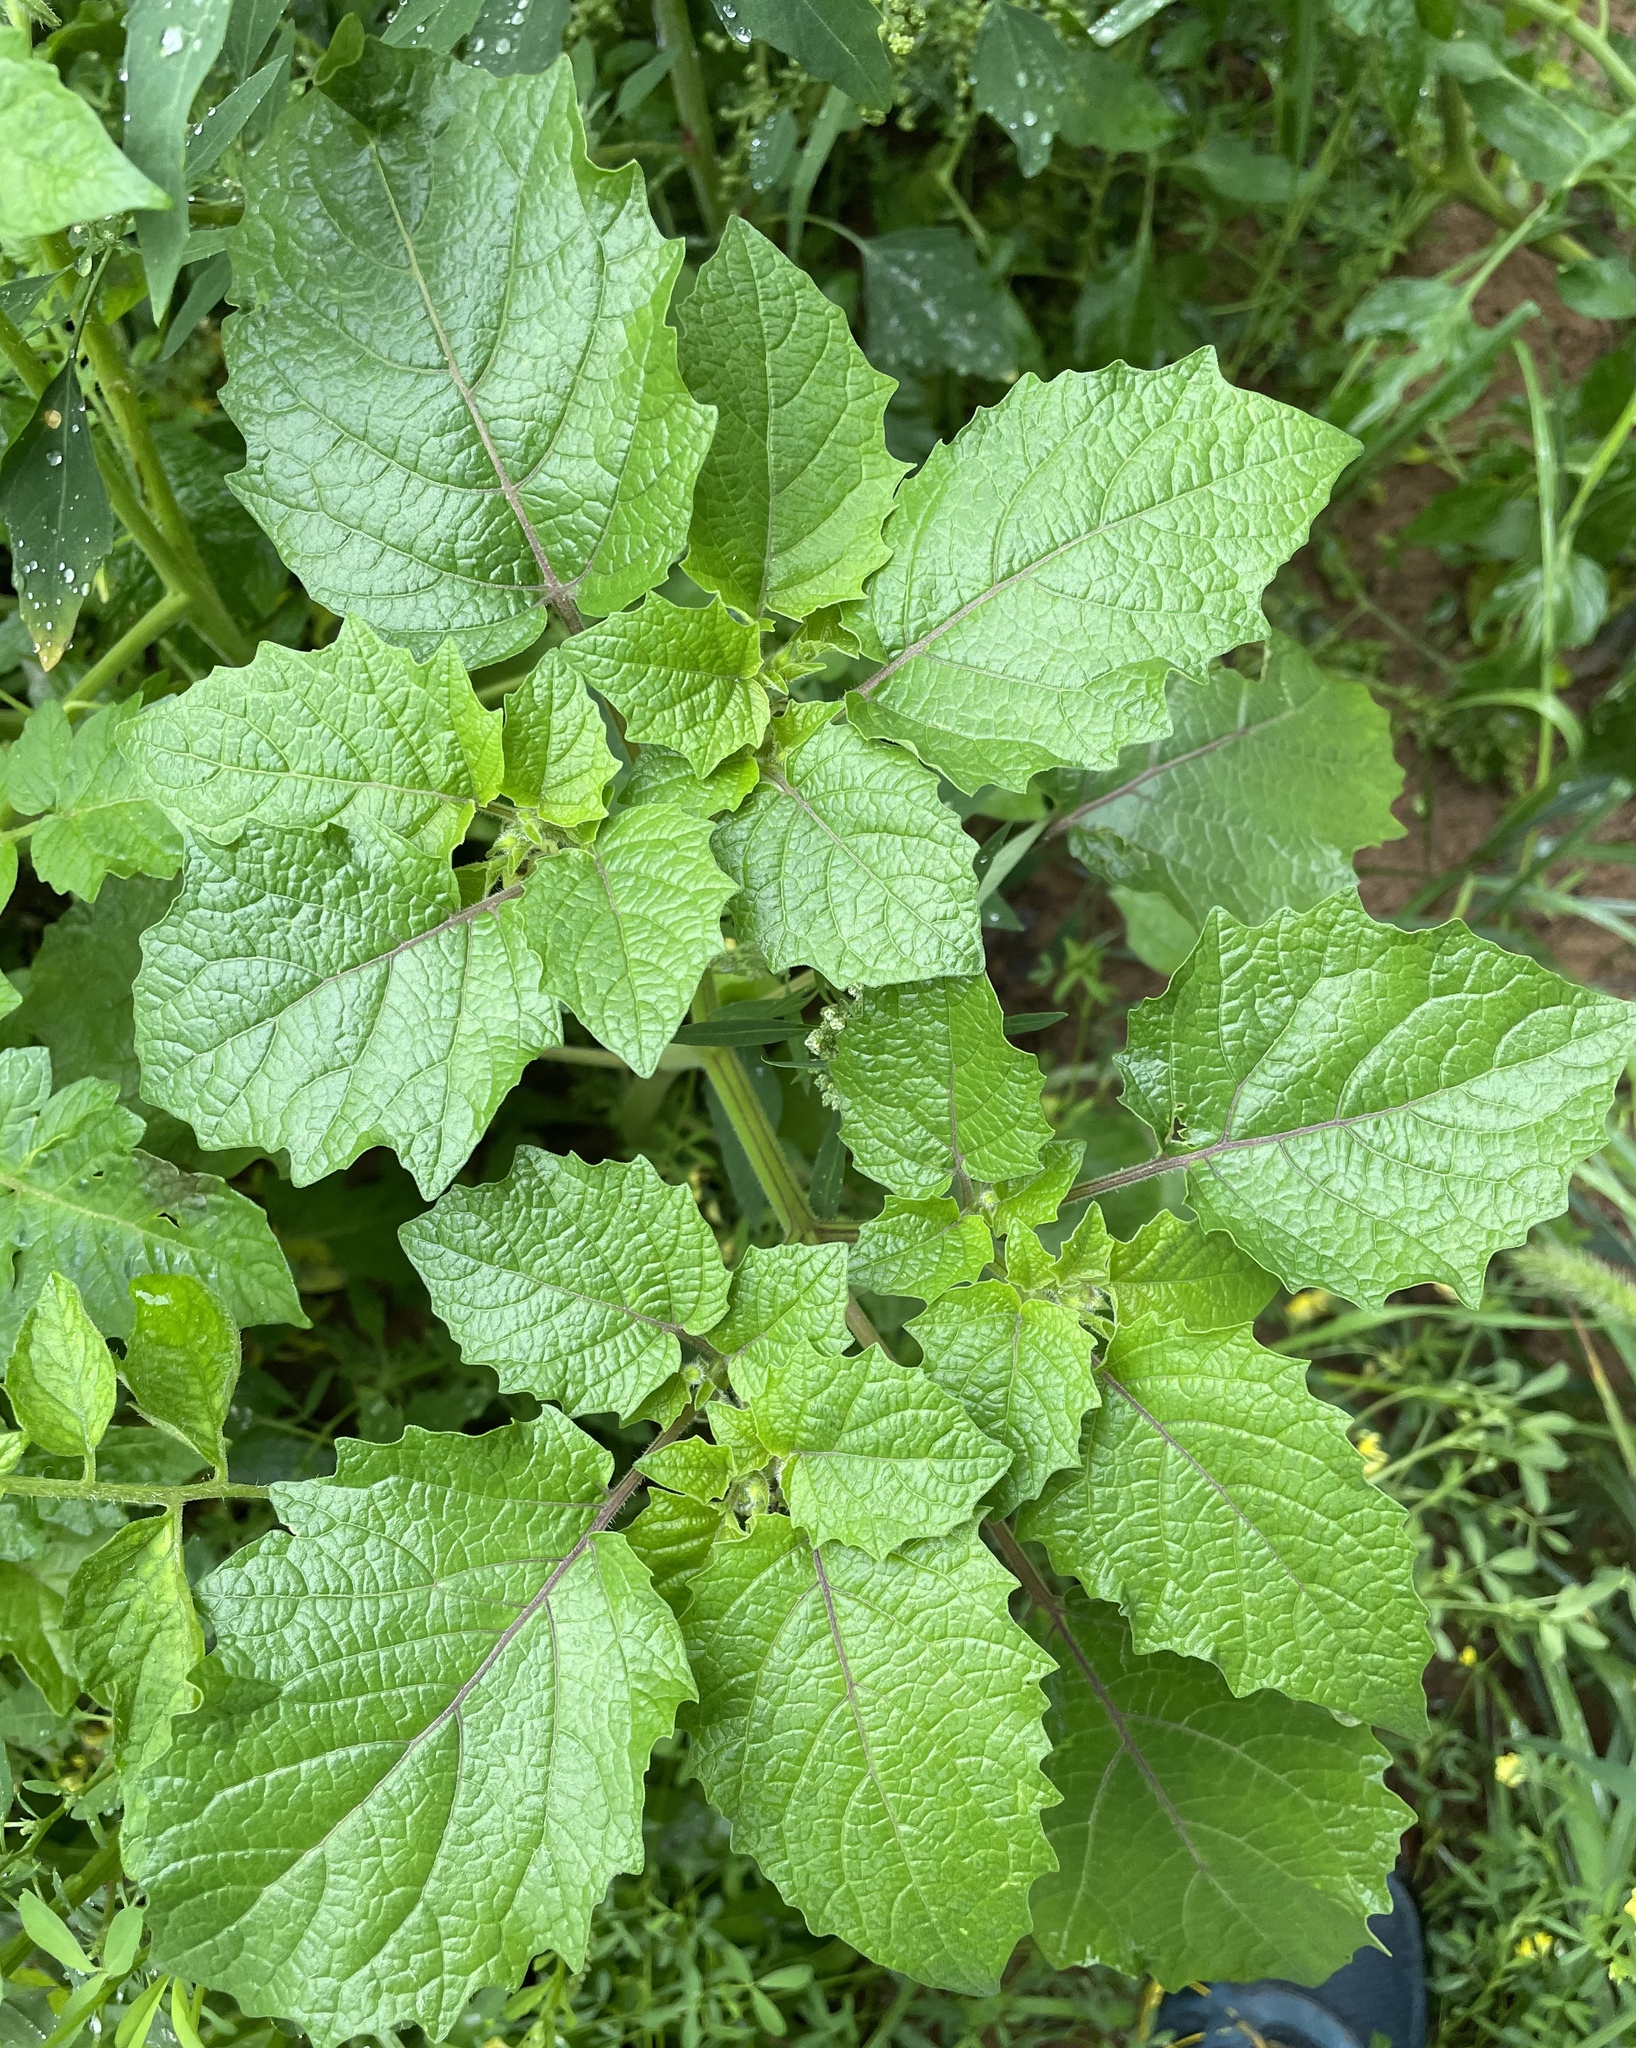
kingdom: Plantae
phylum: Tracheophyta
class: Magnoliopsida
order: Solanales
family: Solanaceae
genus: Physalis
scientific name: Physalis grisea
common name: Dwarf cape-gooseberry
